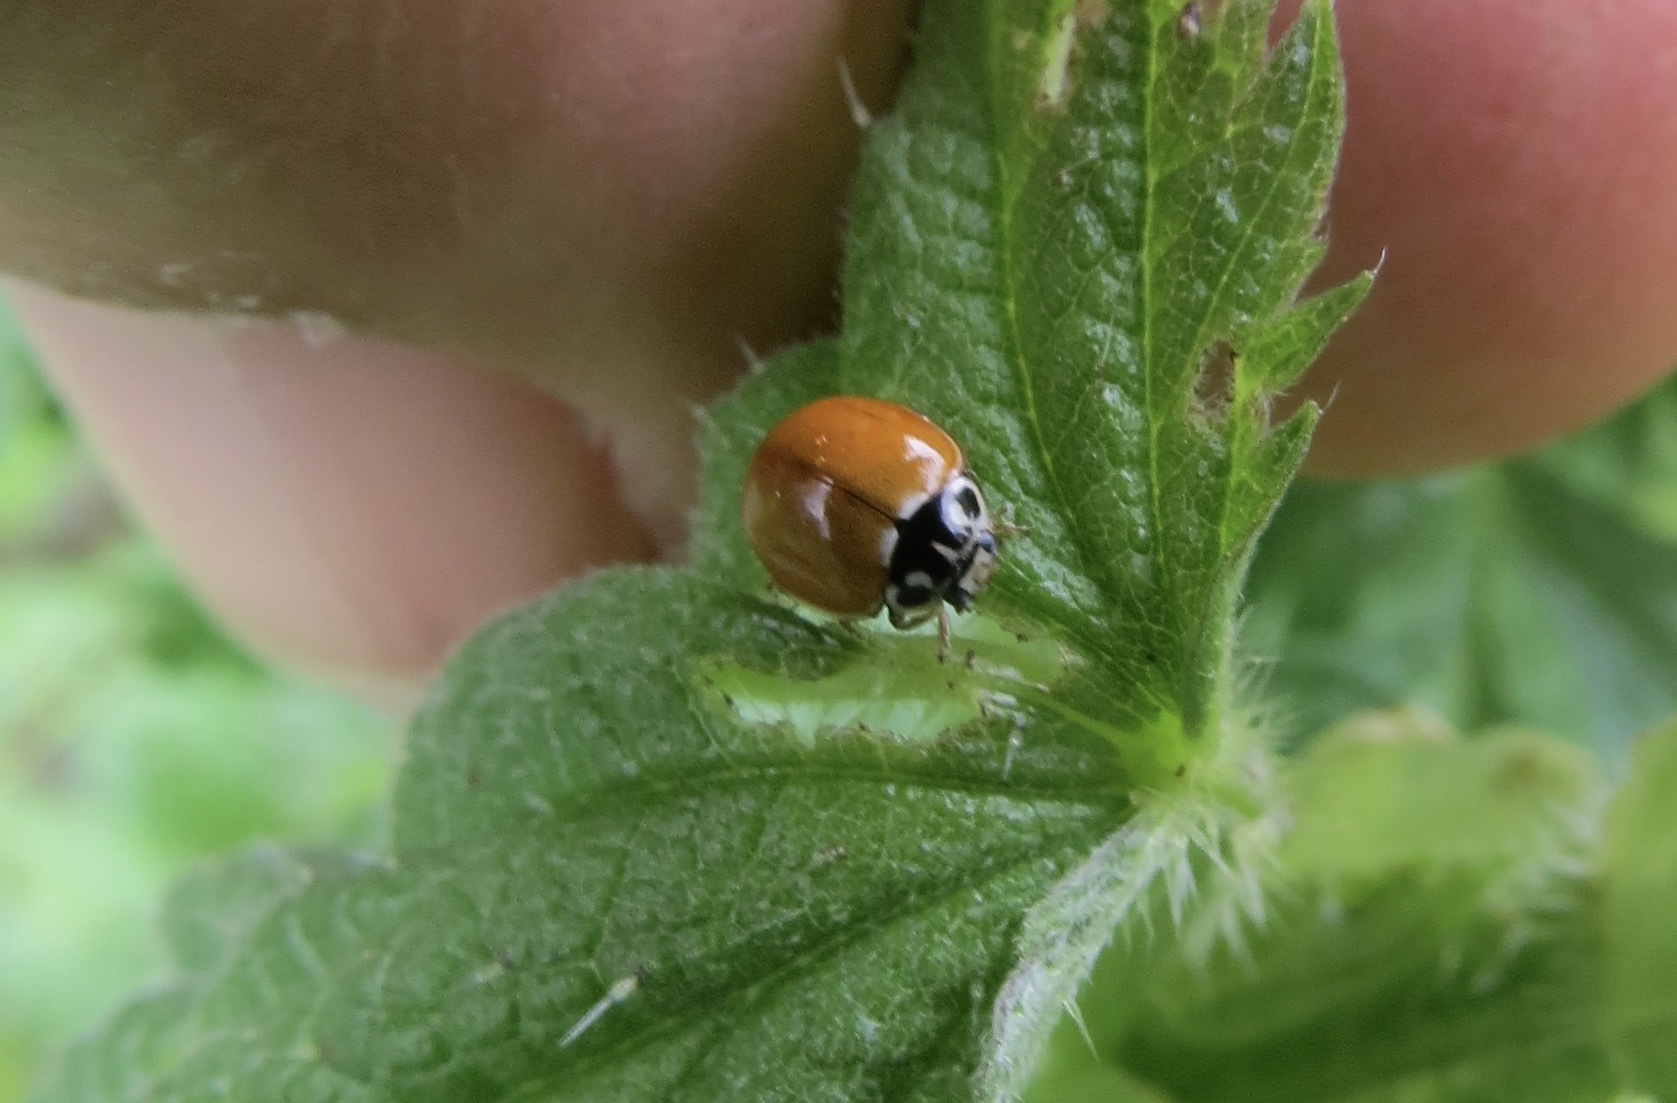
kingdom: Animalia
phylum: Arthropoda
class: Insecta
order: Coleoptera
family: Coccinellidae
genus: Cycloneda
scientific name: Cycloneda polita
